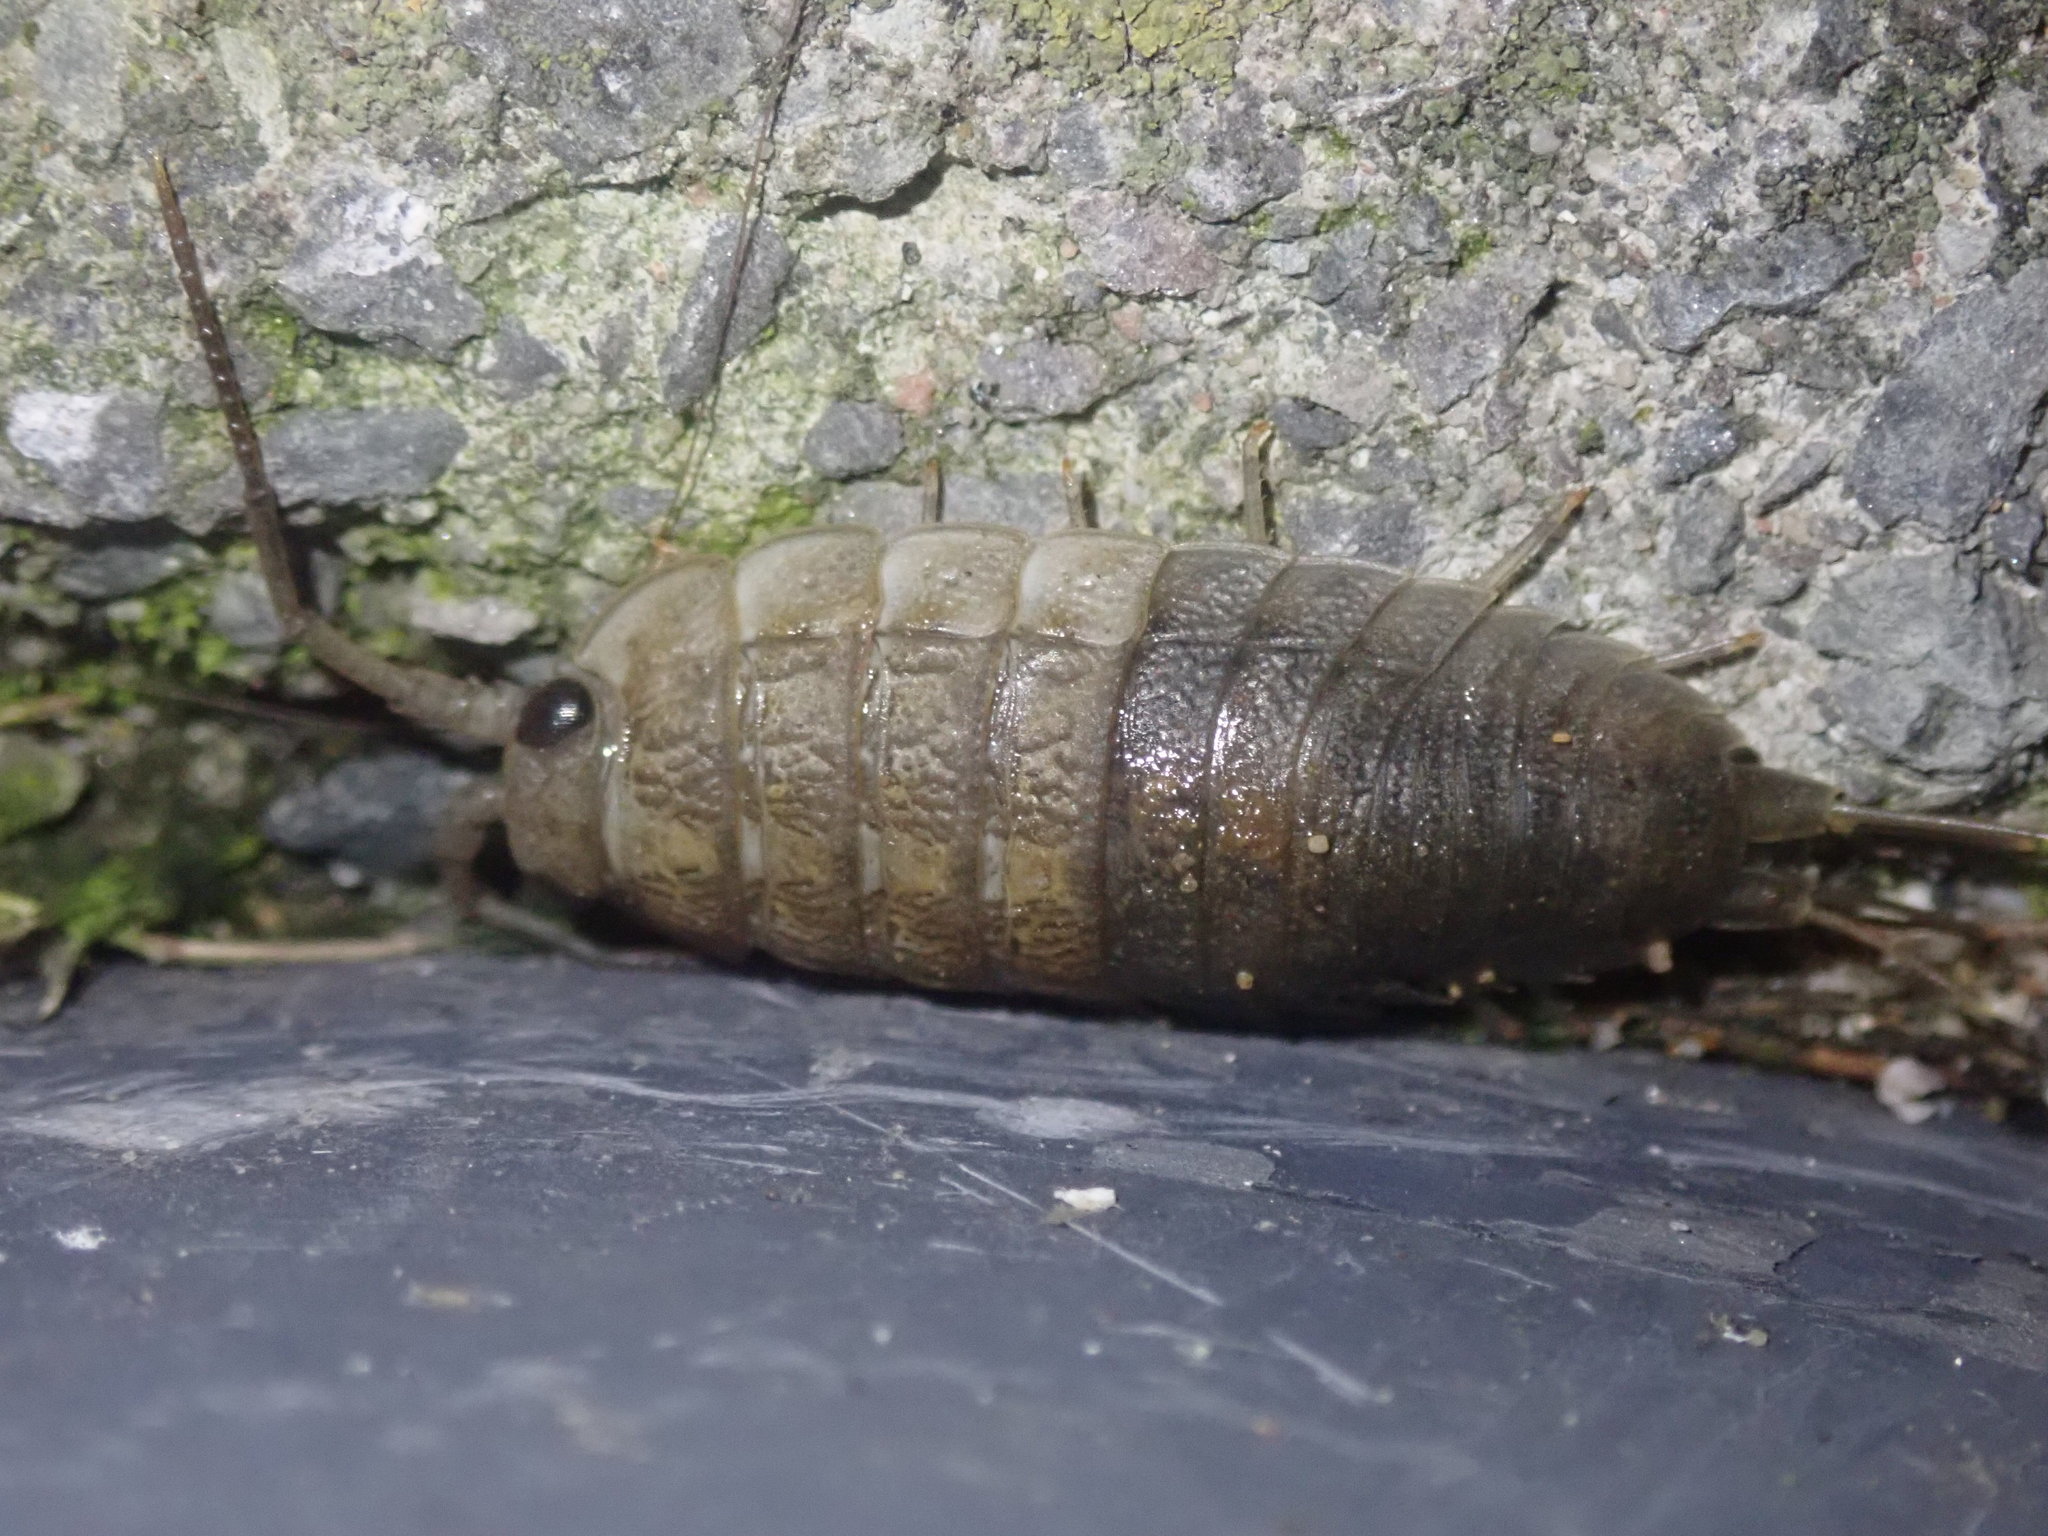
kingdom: Animalia
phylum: Arthropoda
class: Malacostraca
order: Isopoda
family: Ligiidae
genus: Ligia
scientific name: Ligia oceanica
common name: Sea slater
